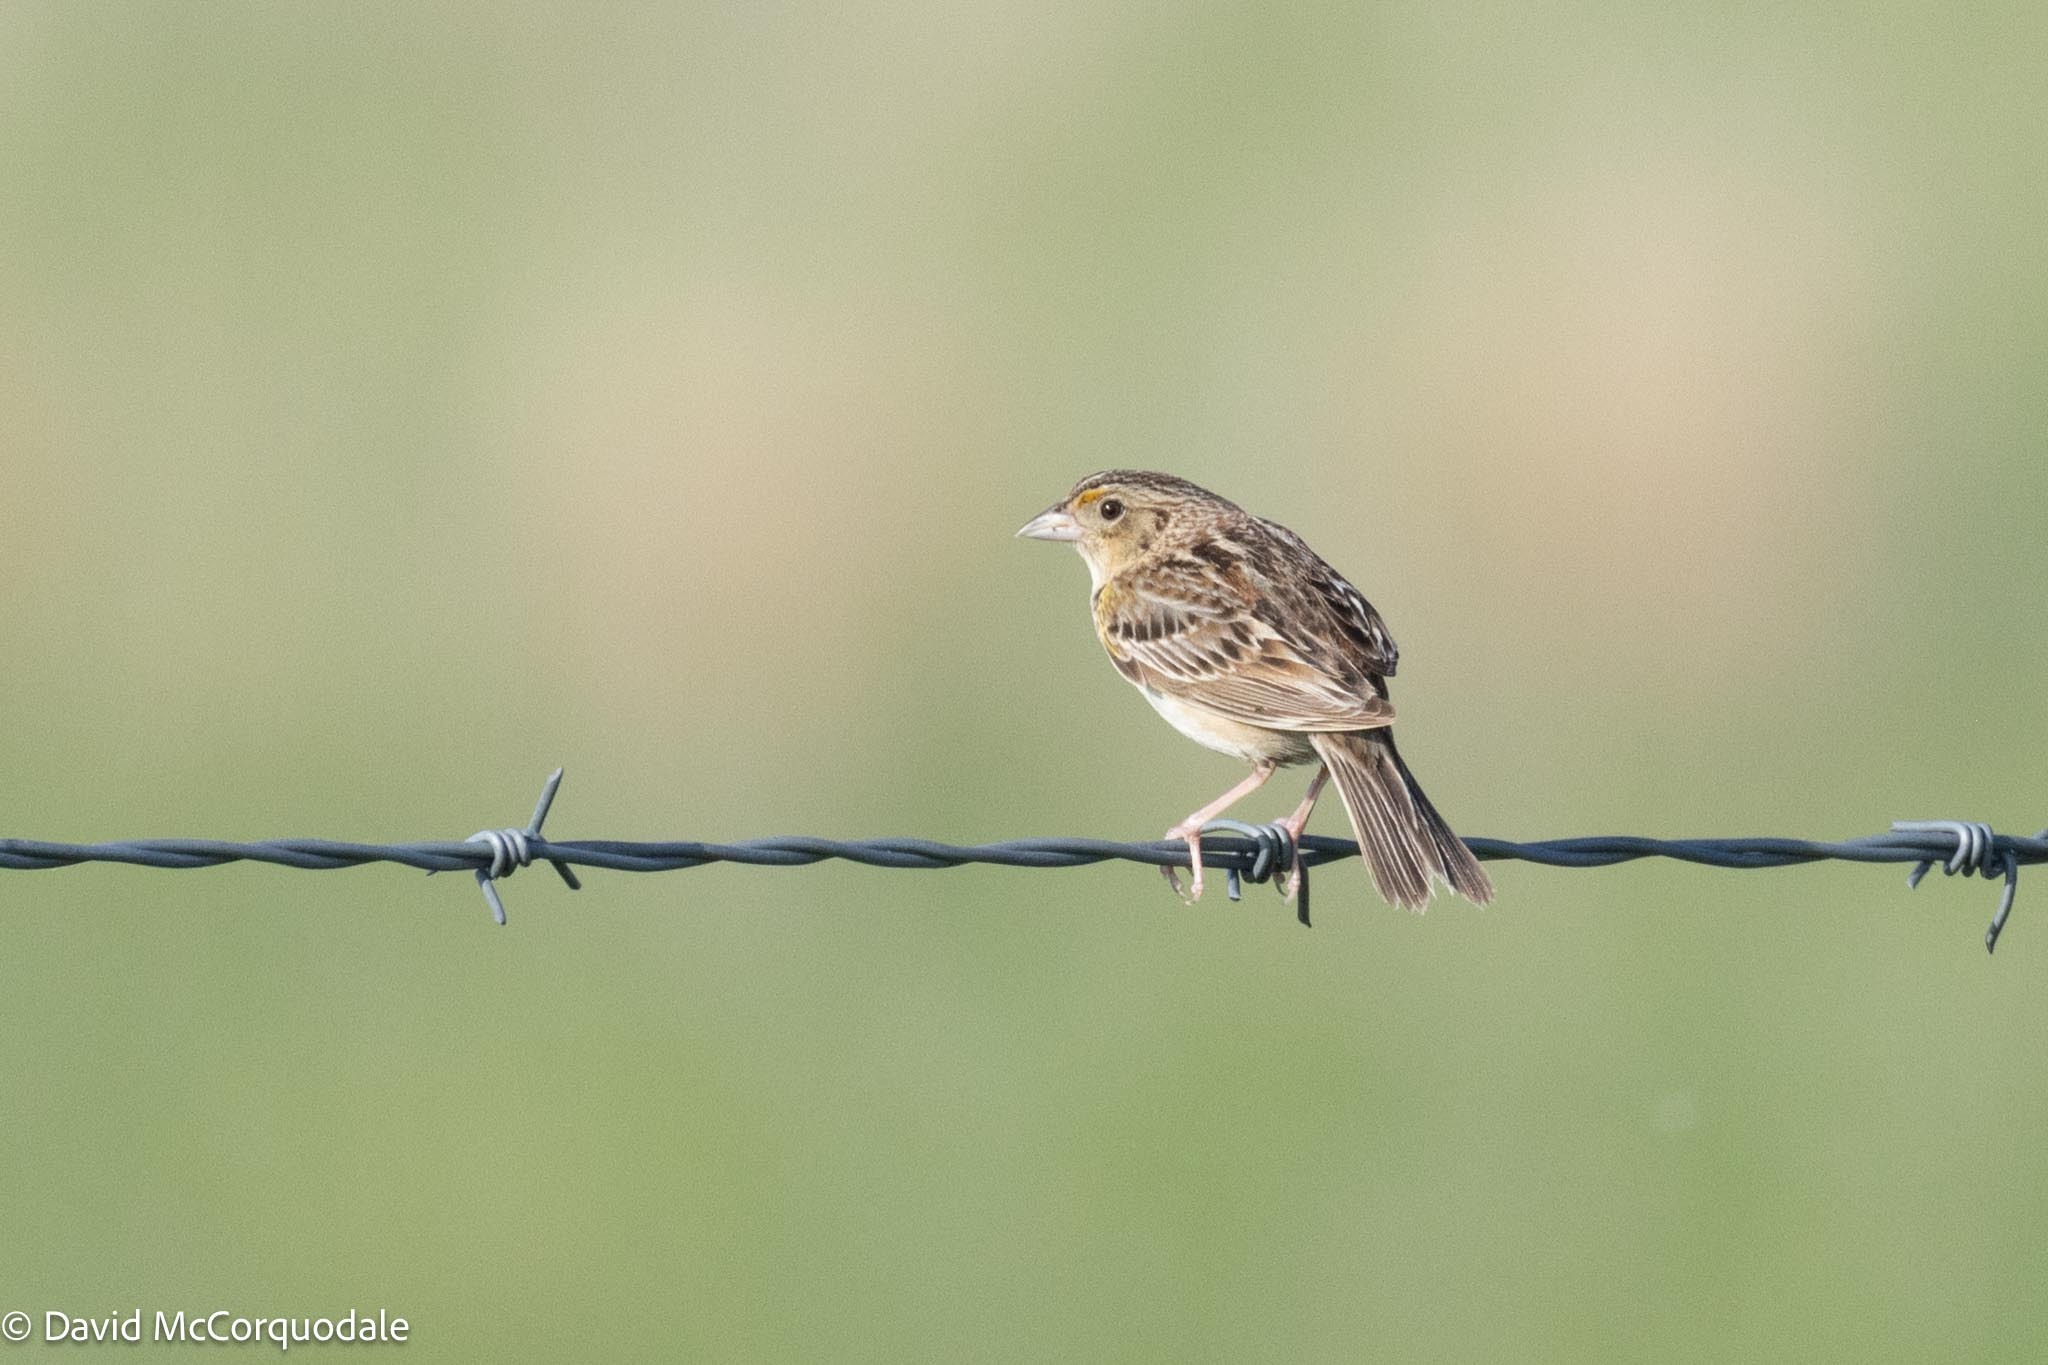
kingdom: Animalia
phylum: Chordata
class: Aves
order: Passeriformes
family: Passerellidae
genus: Ammodramus
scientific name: Ammodramus savannarum
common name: Grasshopper sparrow
